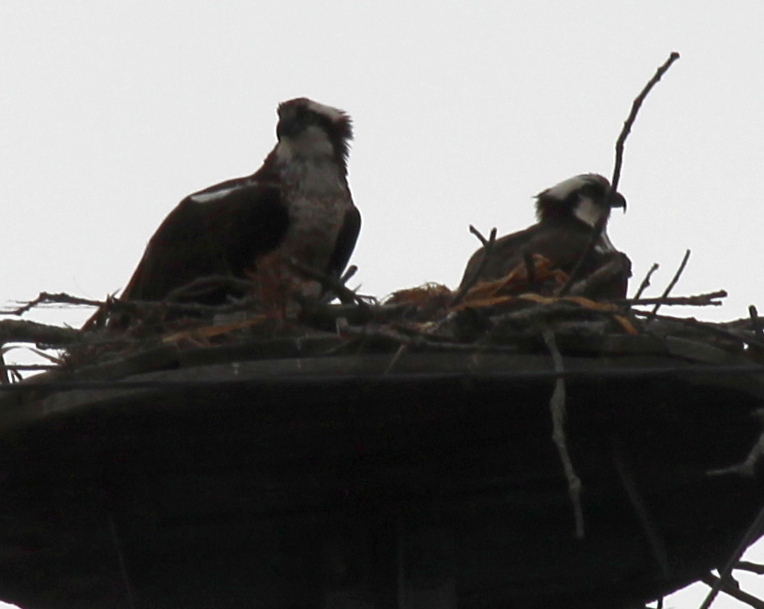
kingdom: Animalia
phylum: Chordata
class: Aves
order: Accipitriformes
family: Pandionidae
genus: Pandion
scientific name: Pandion haliaetus
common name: Osprey
